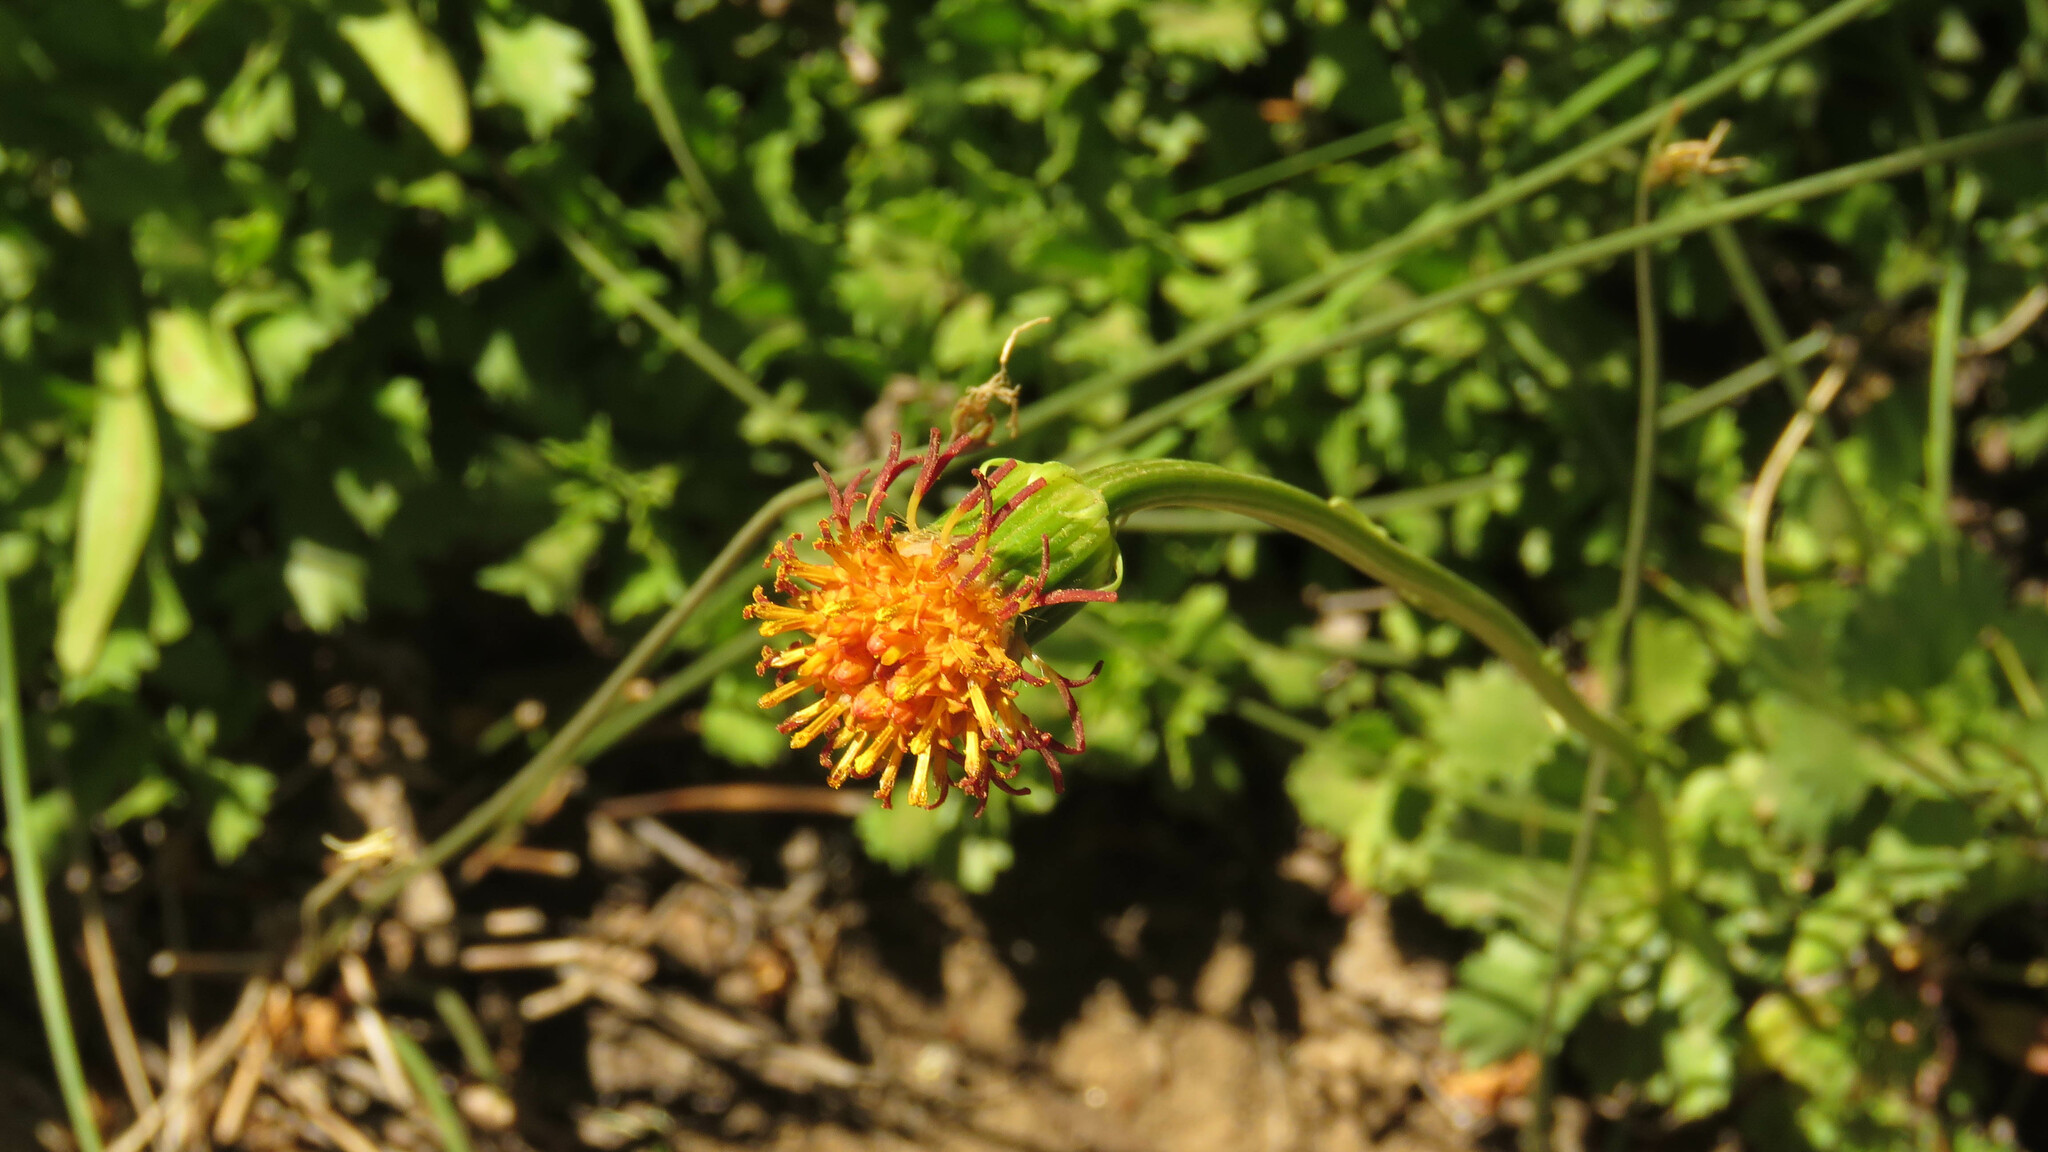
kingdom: Plantae
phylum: Tracheophyta
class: Magnoliopsida
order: Asterales
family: Asteraceae
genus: Senecio
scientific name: Senecio kingii
